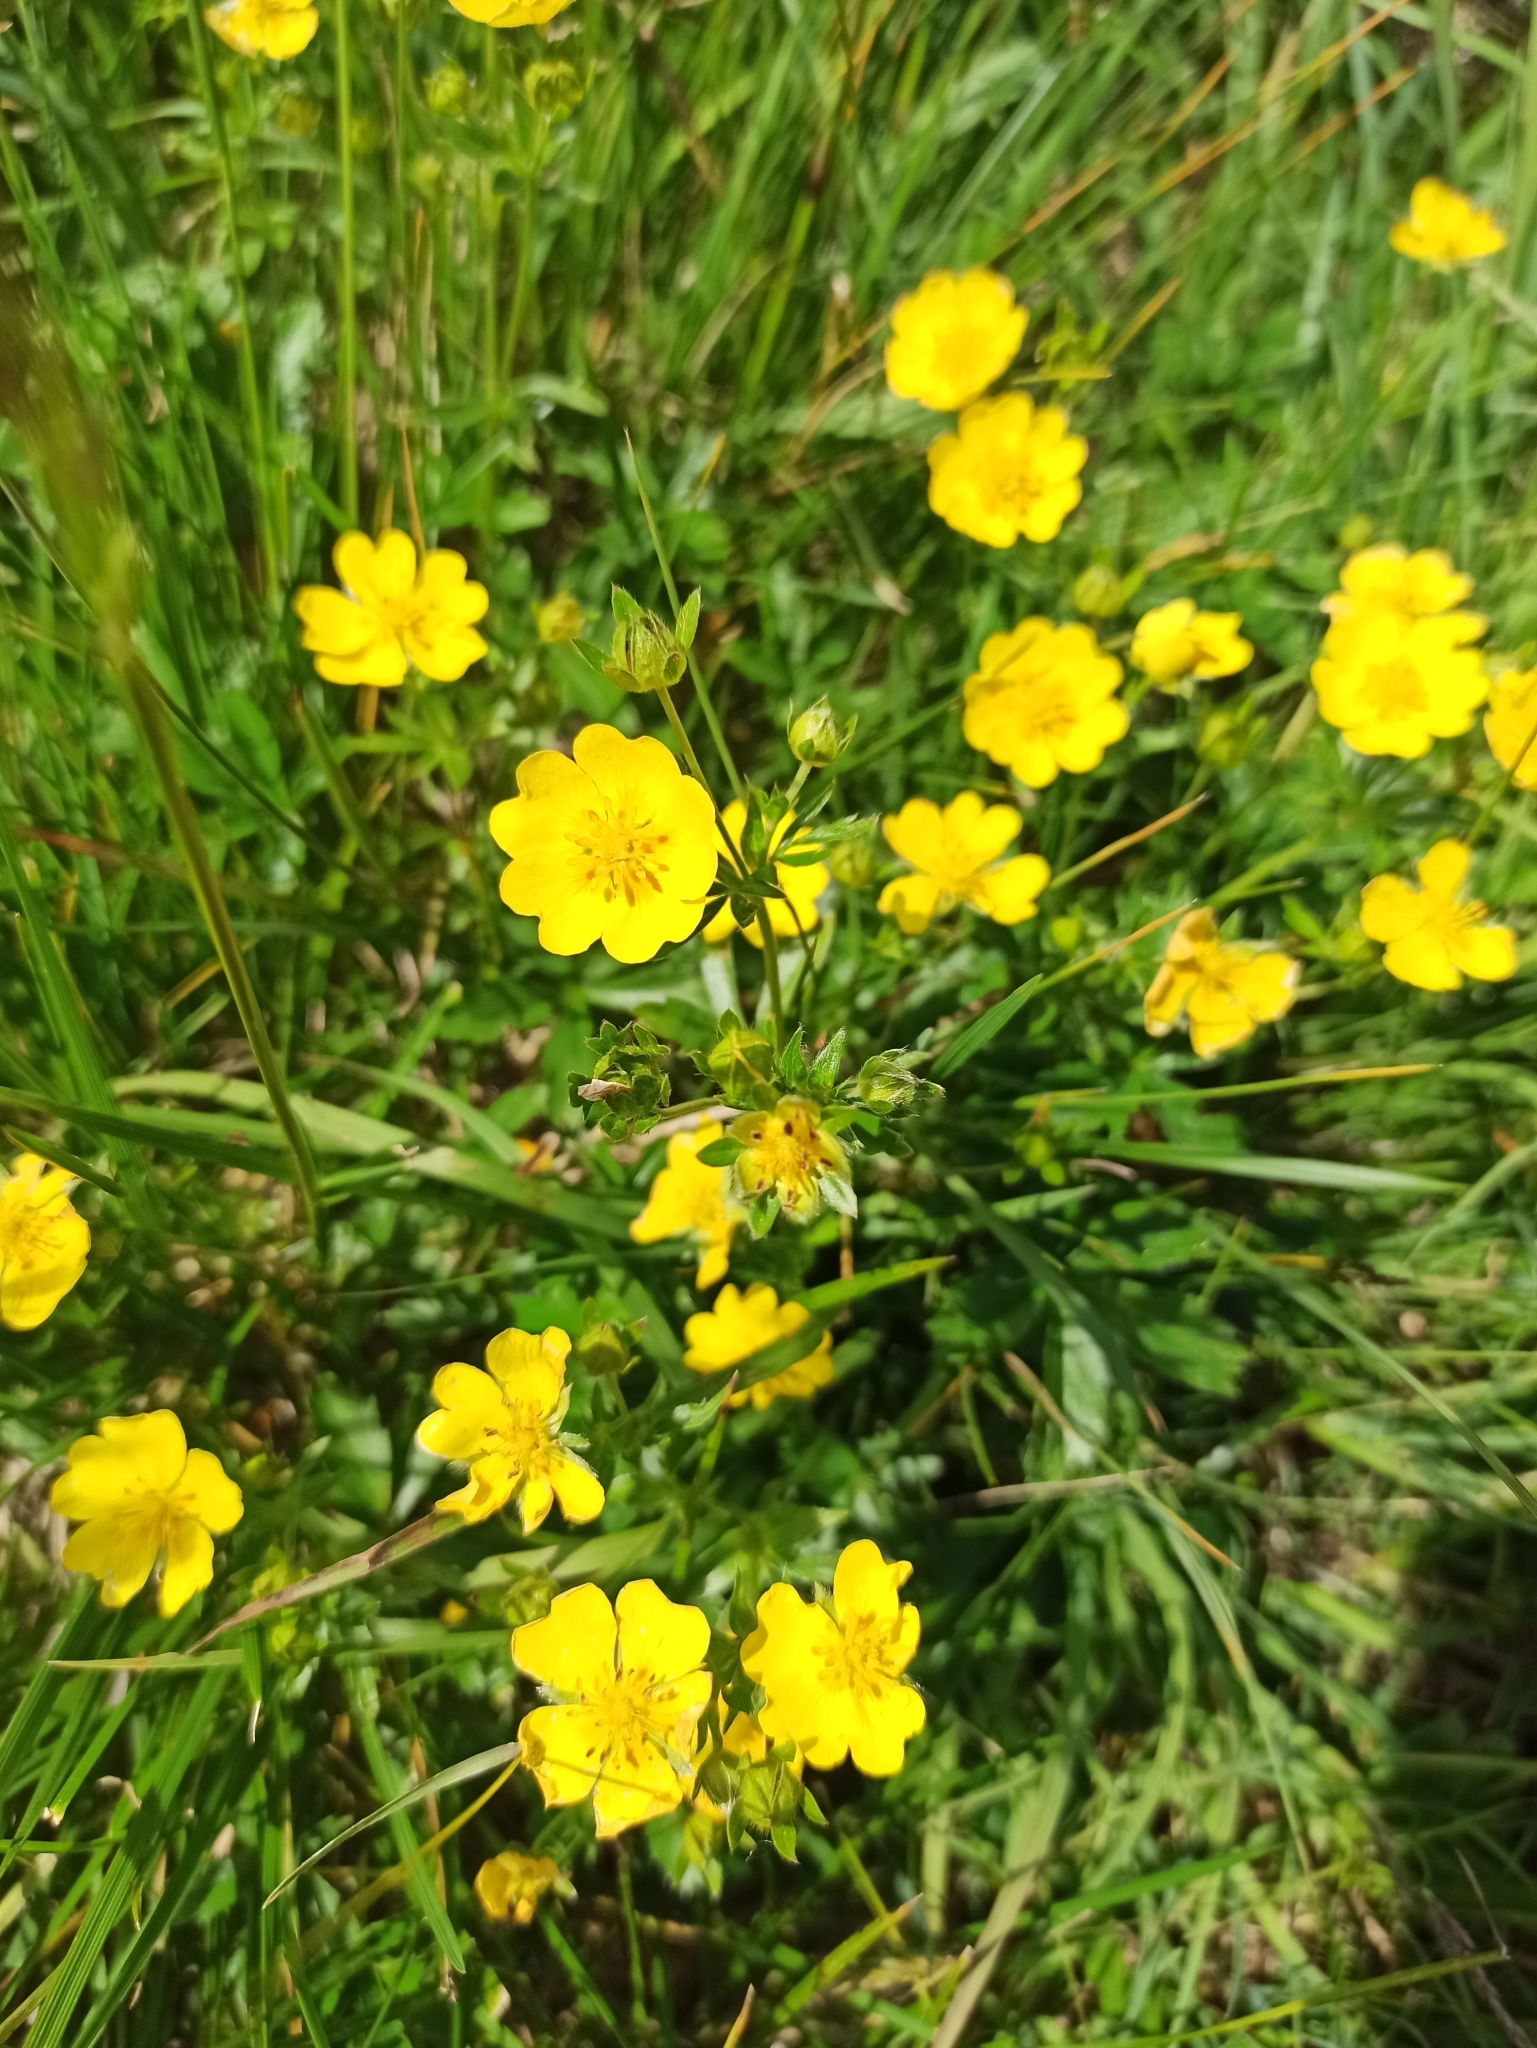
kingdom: Plantae
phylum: Tracheophyta
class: Magnoliopsida
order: Rosales
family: Rosaceae
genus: Potentilla
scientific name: Potentilla aurea
